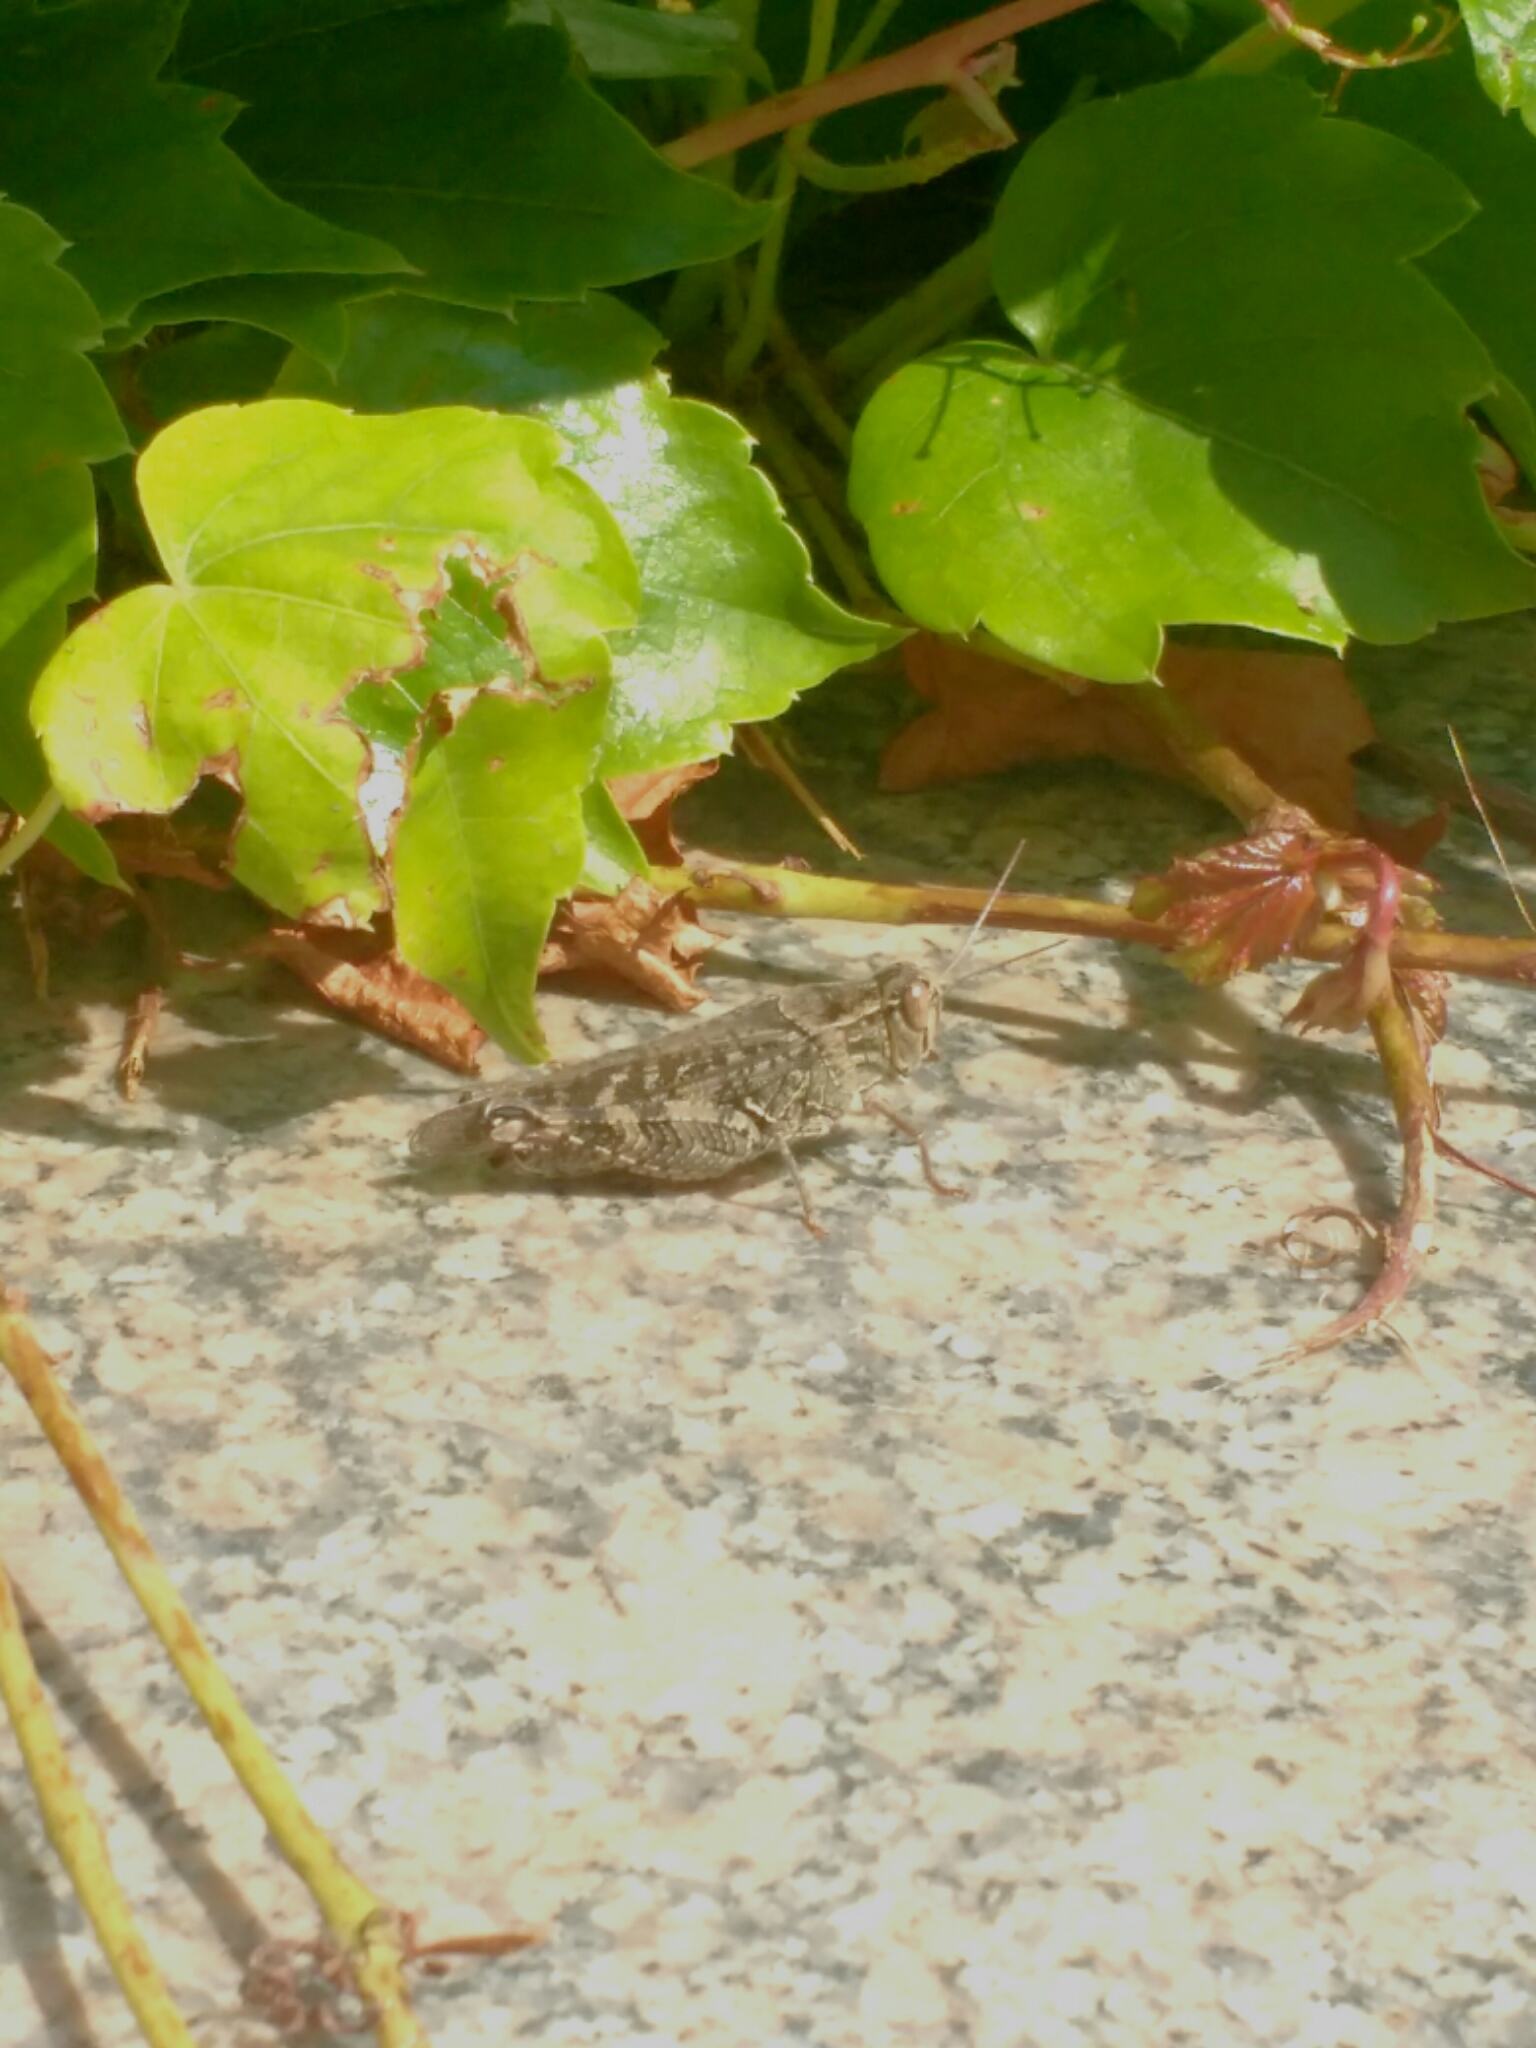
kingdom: Animalia
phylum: Arthropoda
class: Insecta
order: Orthoptera
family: Acrididae
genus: Calliptamus
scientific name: Calliptamus italicus
